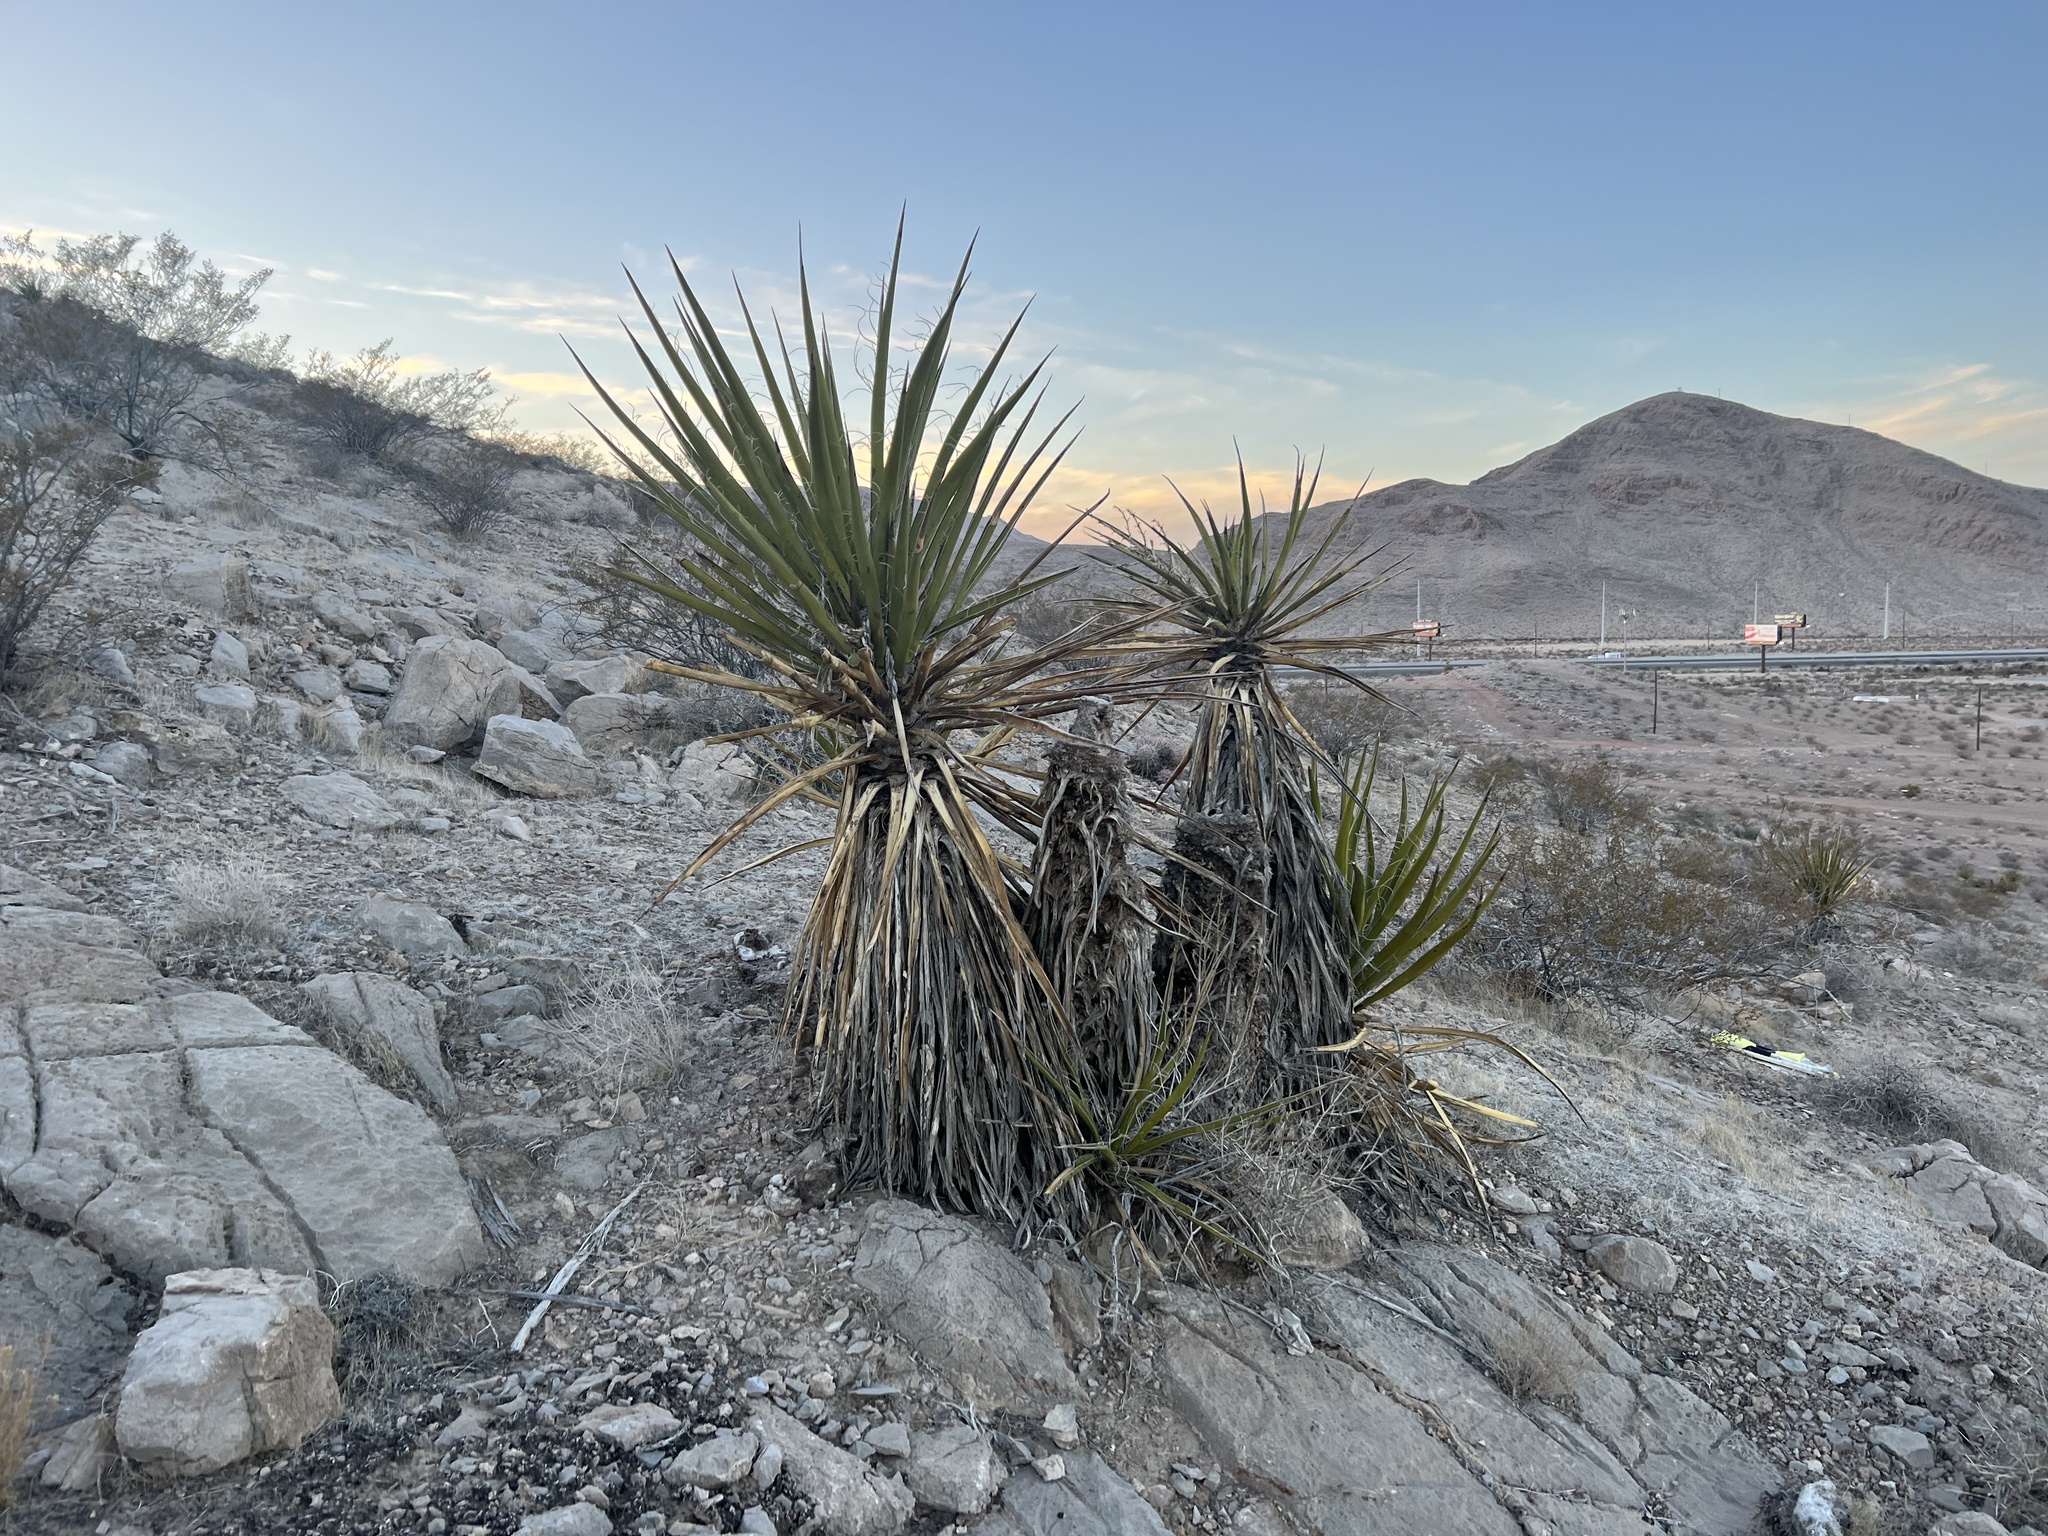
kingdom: Plantae
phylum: Tracheophyta
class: Liliopsida
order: Asparagales
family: Asparagaceae
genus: Yucca
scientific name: Yucca schidigera
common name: Mojave yucca
